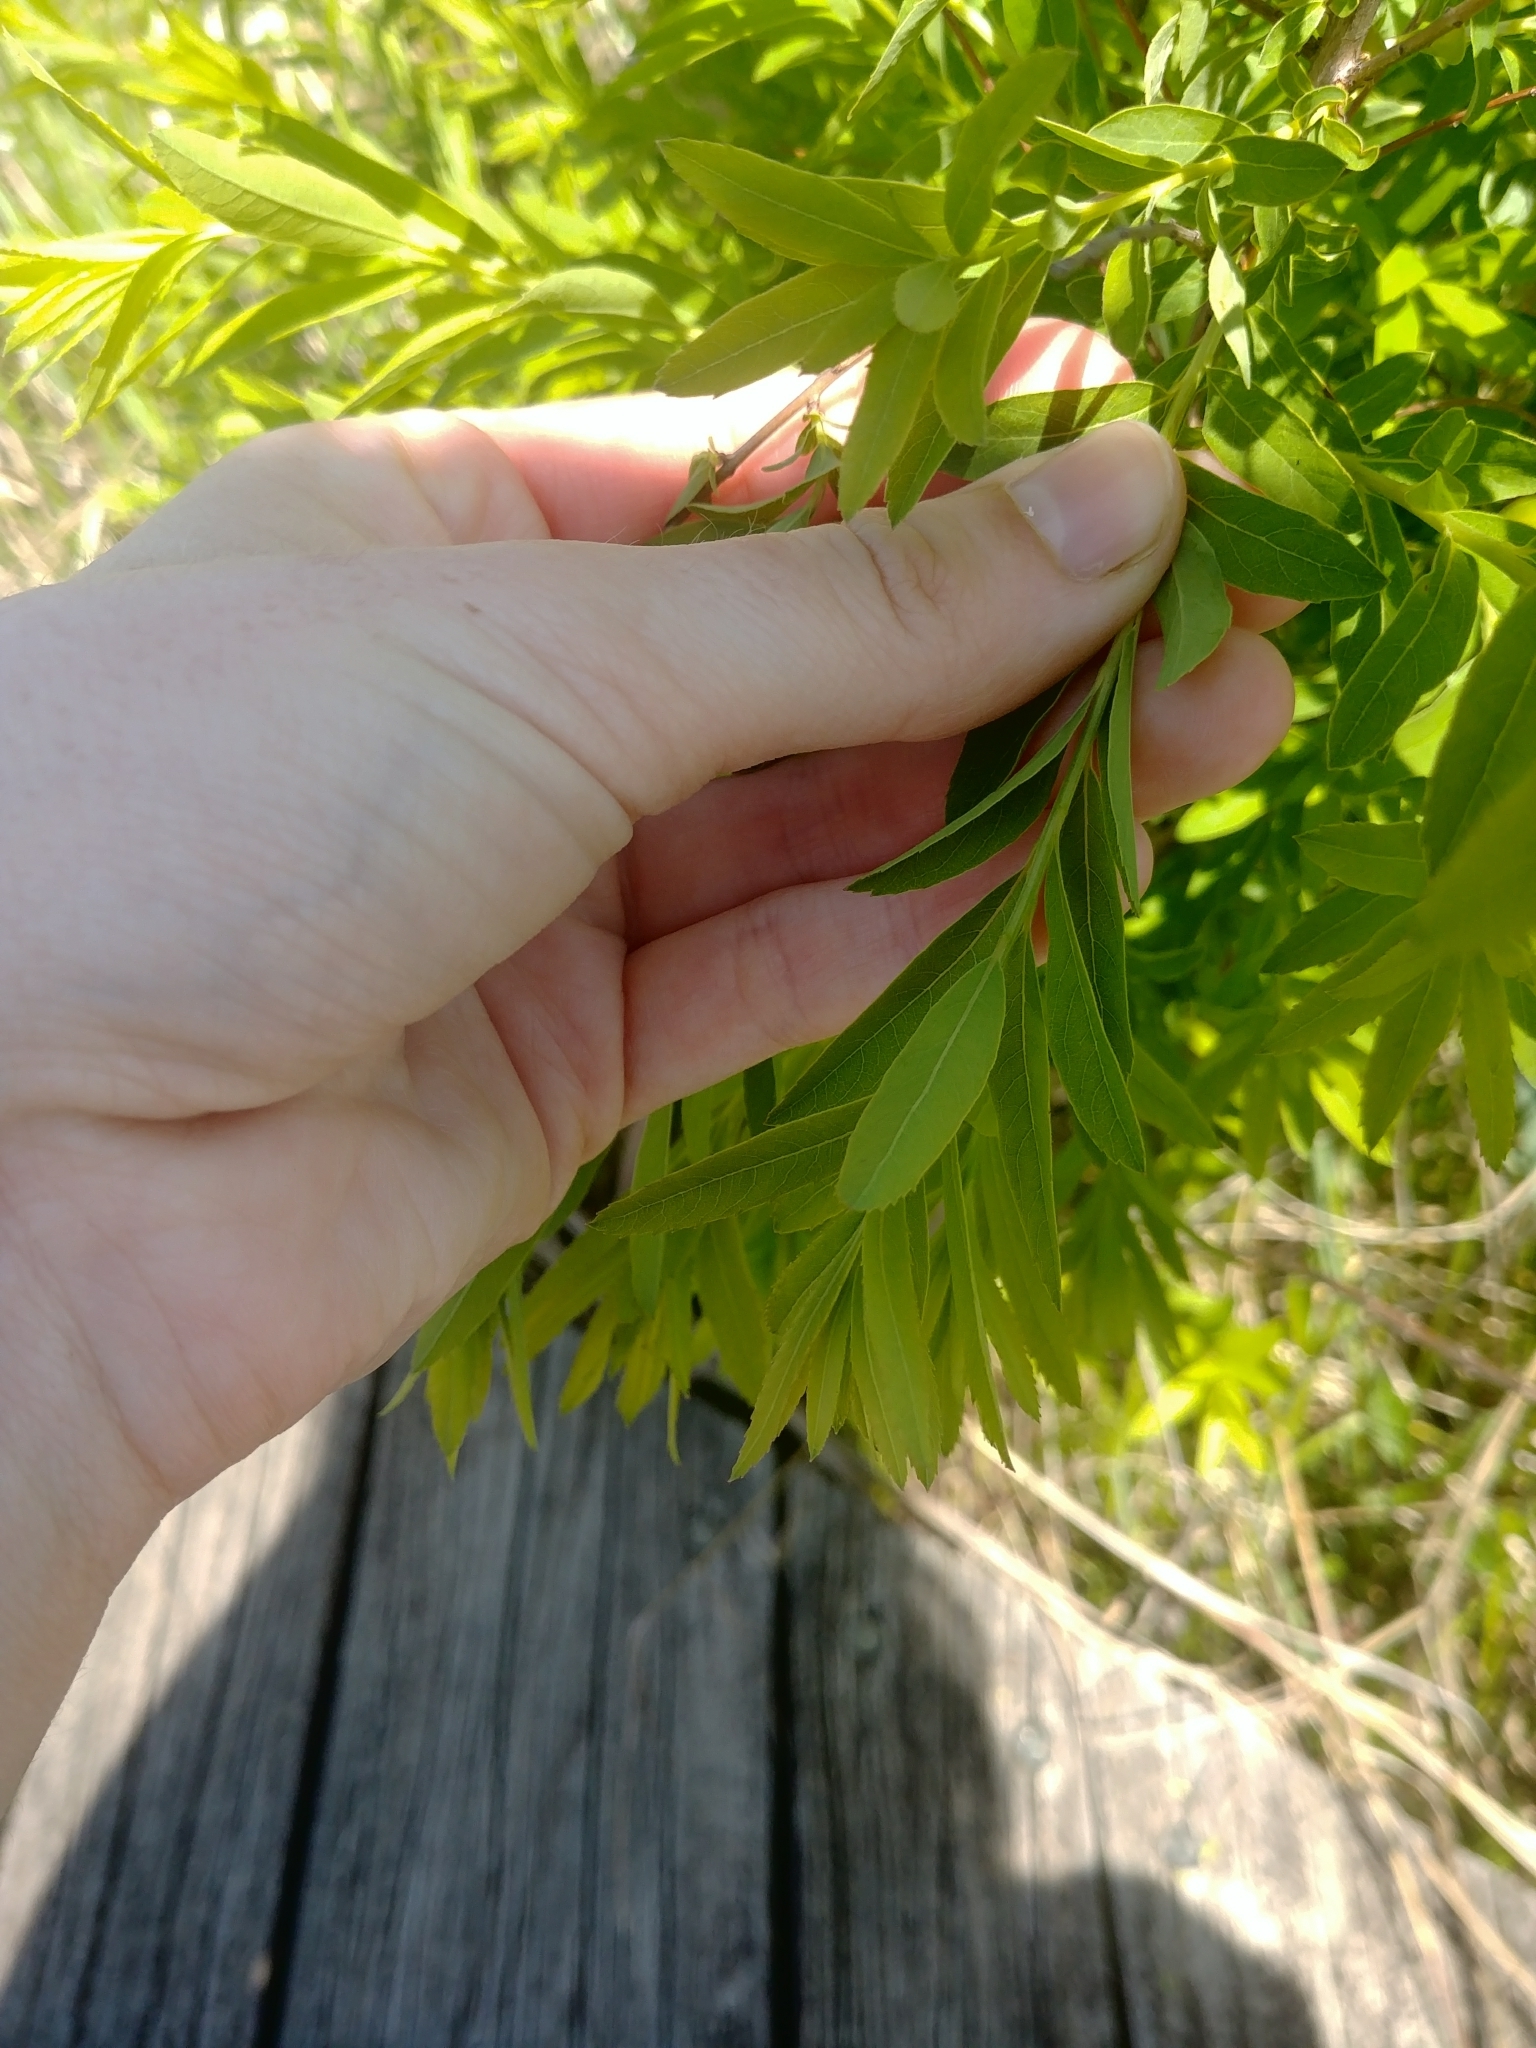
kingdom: Plantae
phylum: Tracheophyta
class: Magnoliopsida
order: Rosales
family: Rosaceae
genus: Spiraea
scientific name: Spiraea alba
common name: Pale bridewort
